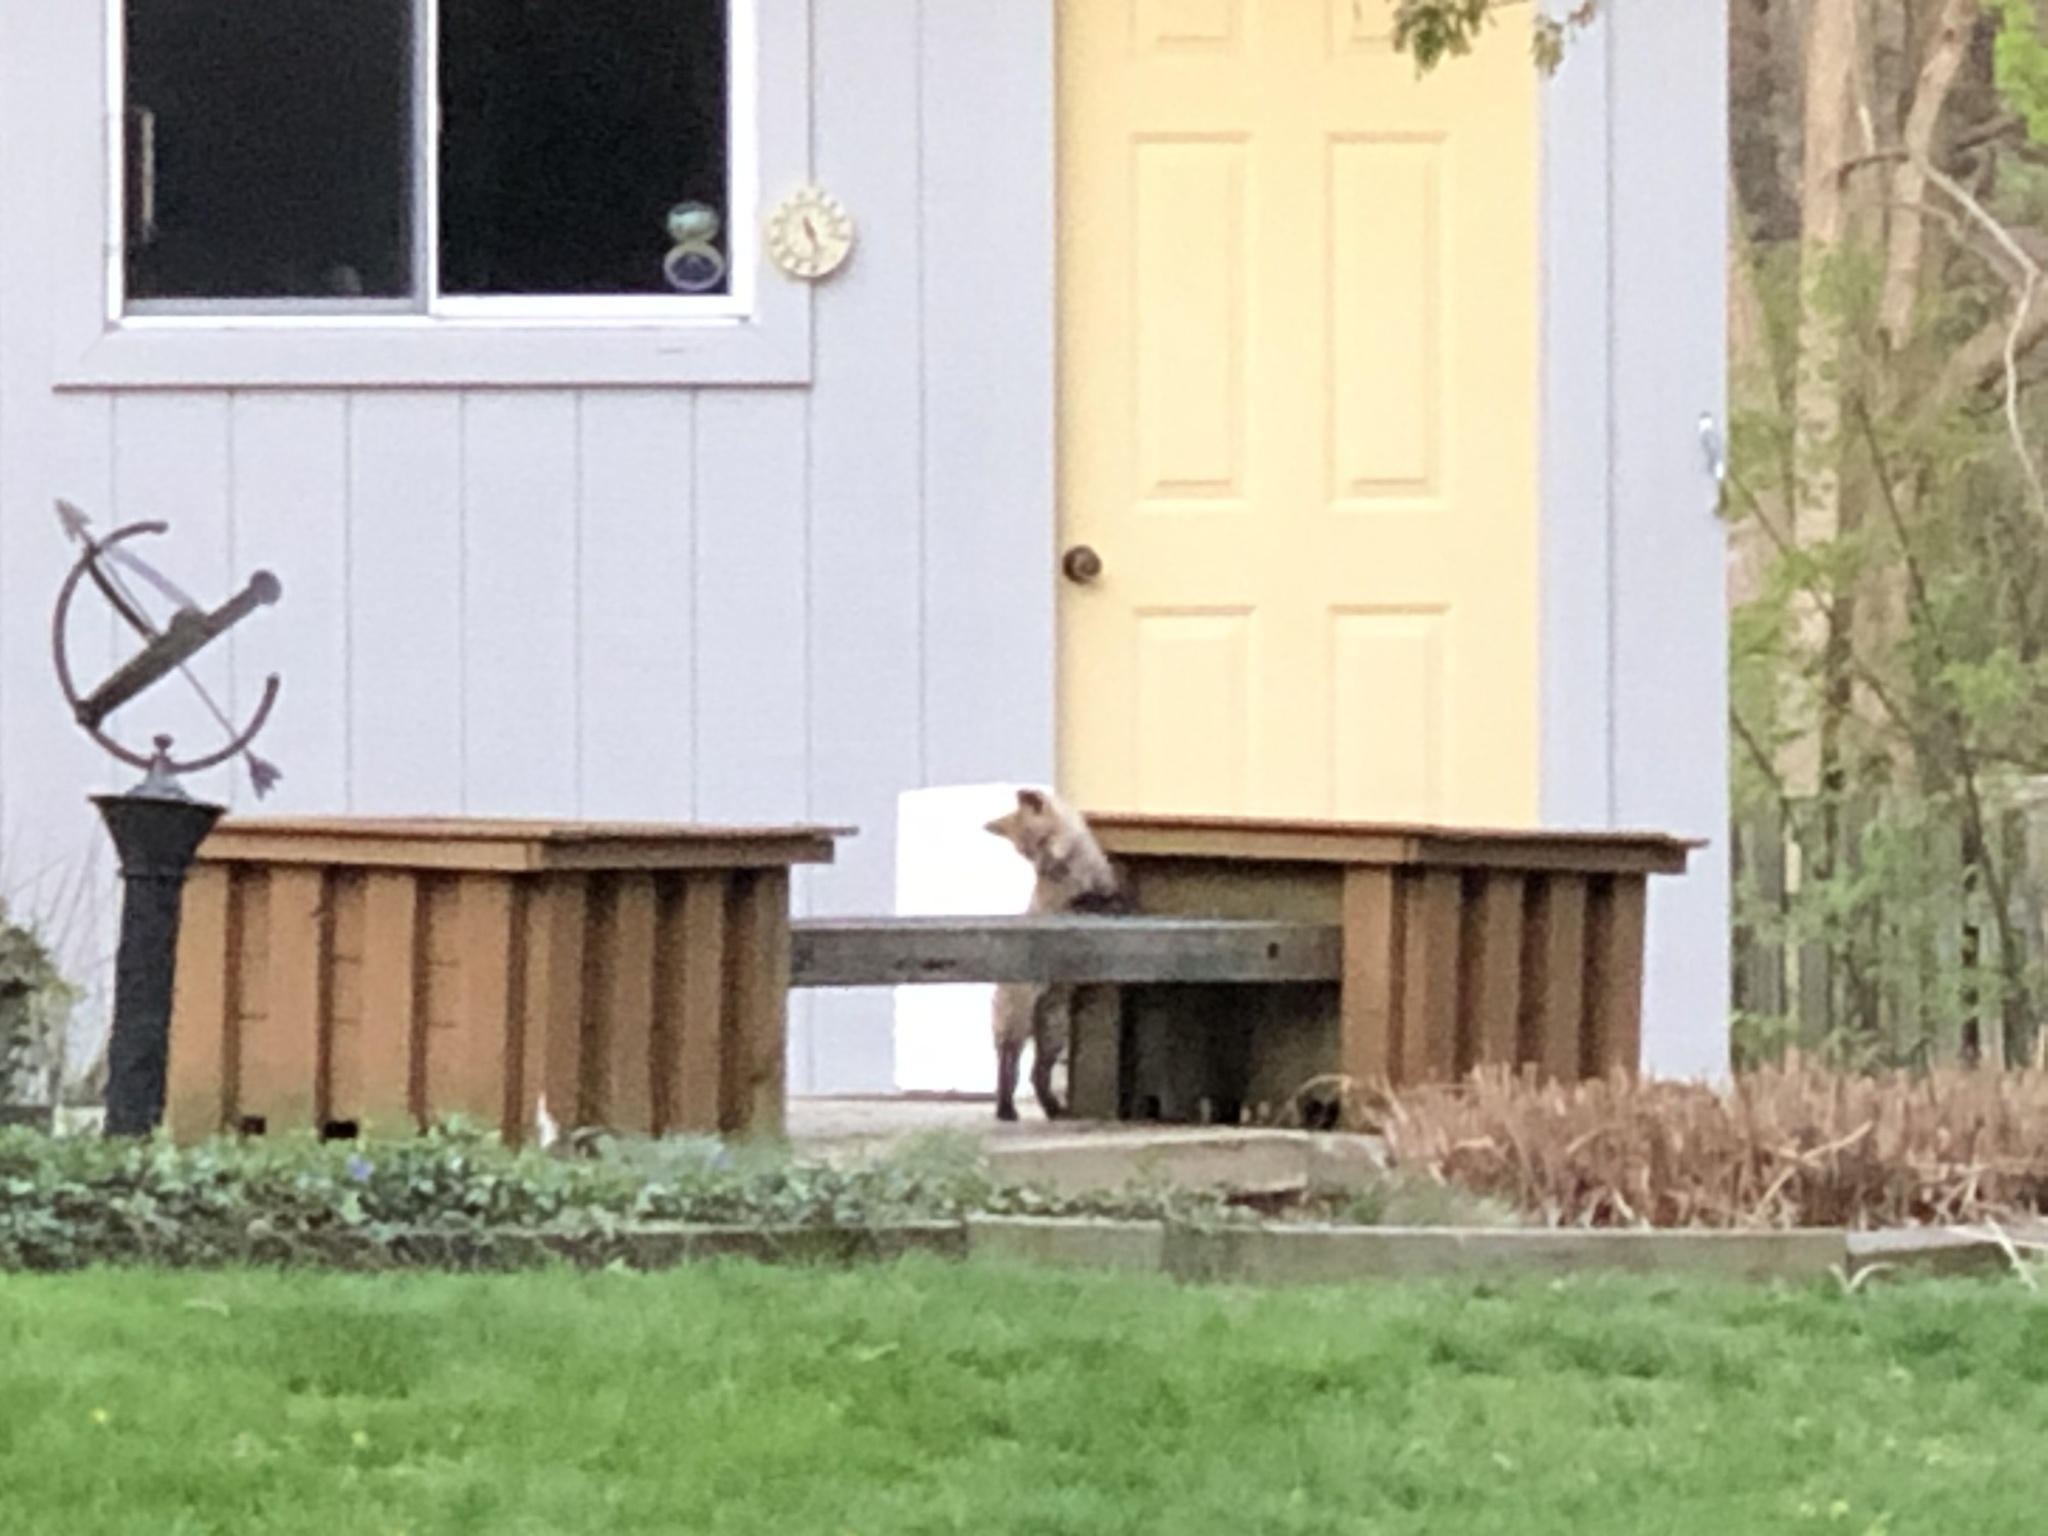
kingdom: Animalia
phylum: Chordata
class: Mammalia
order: Carnivora
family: Canidae
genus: Vulpes
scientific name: Vulpes vulpes
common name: Red fox
